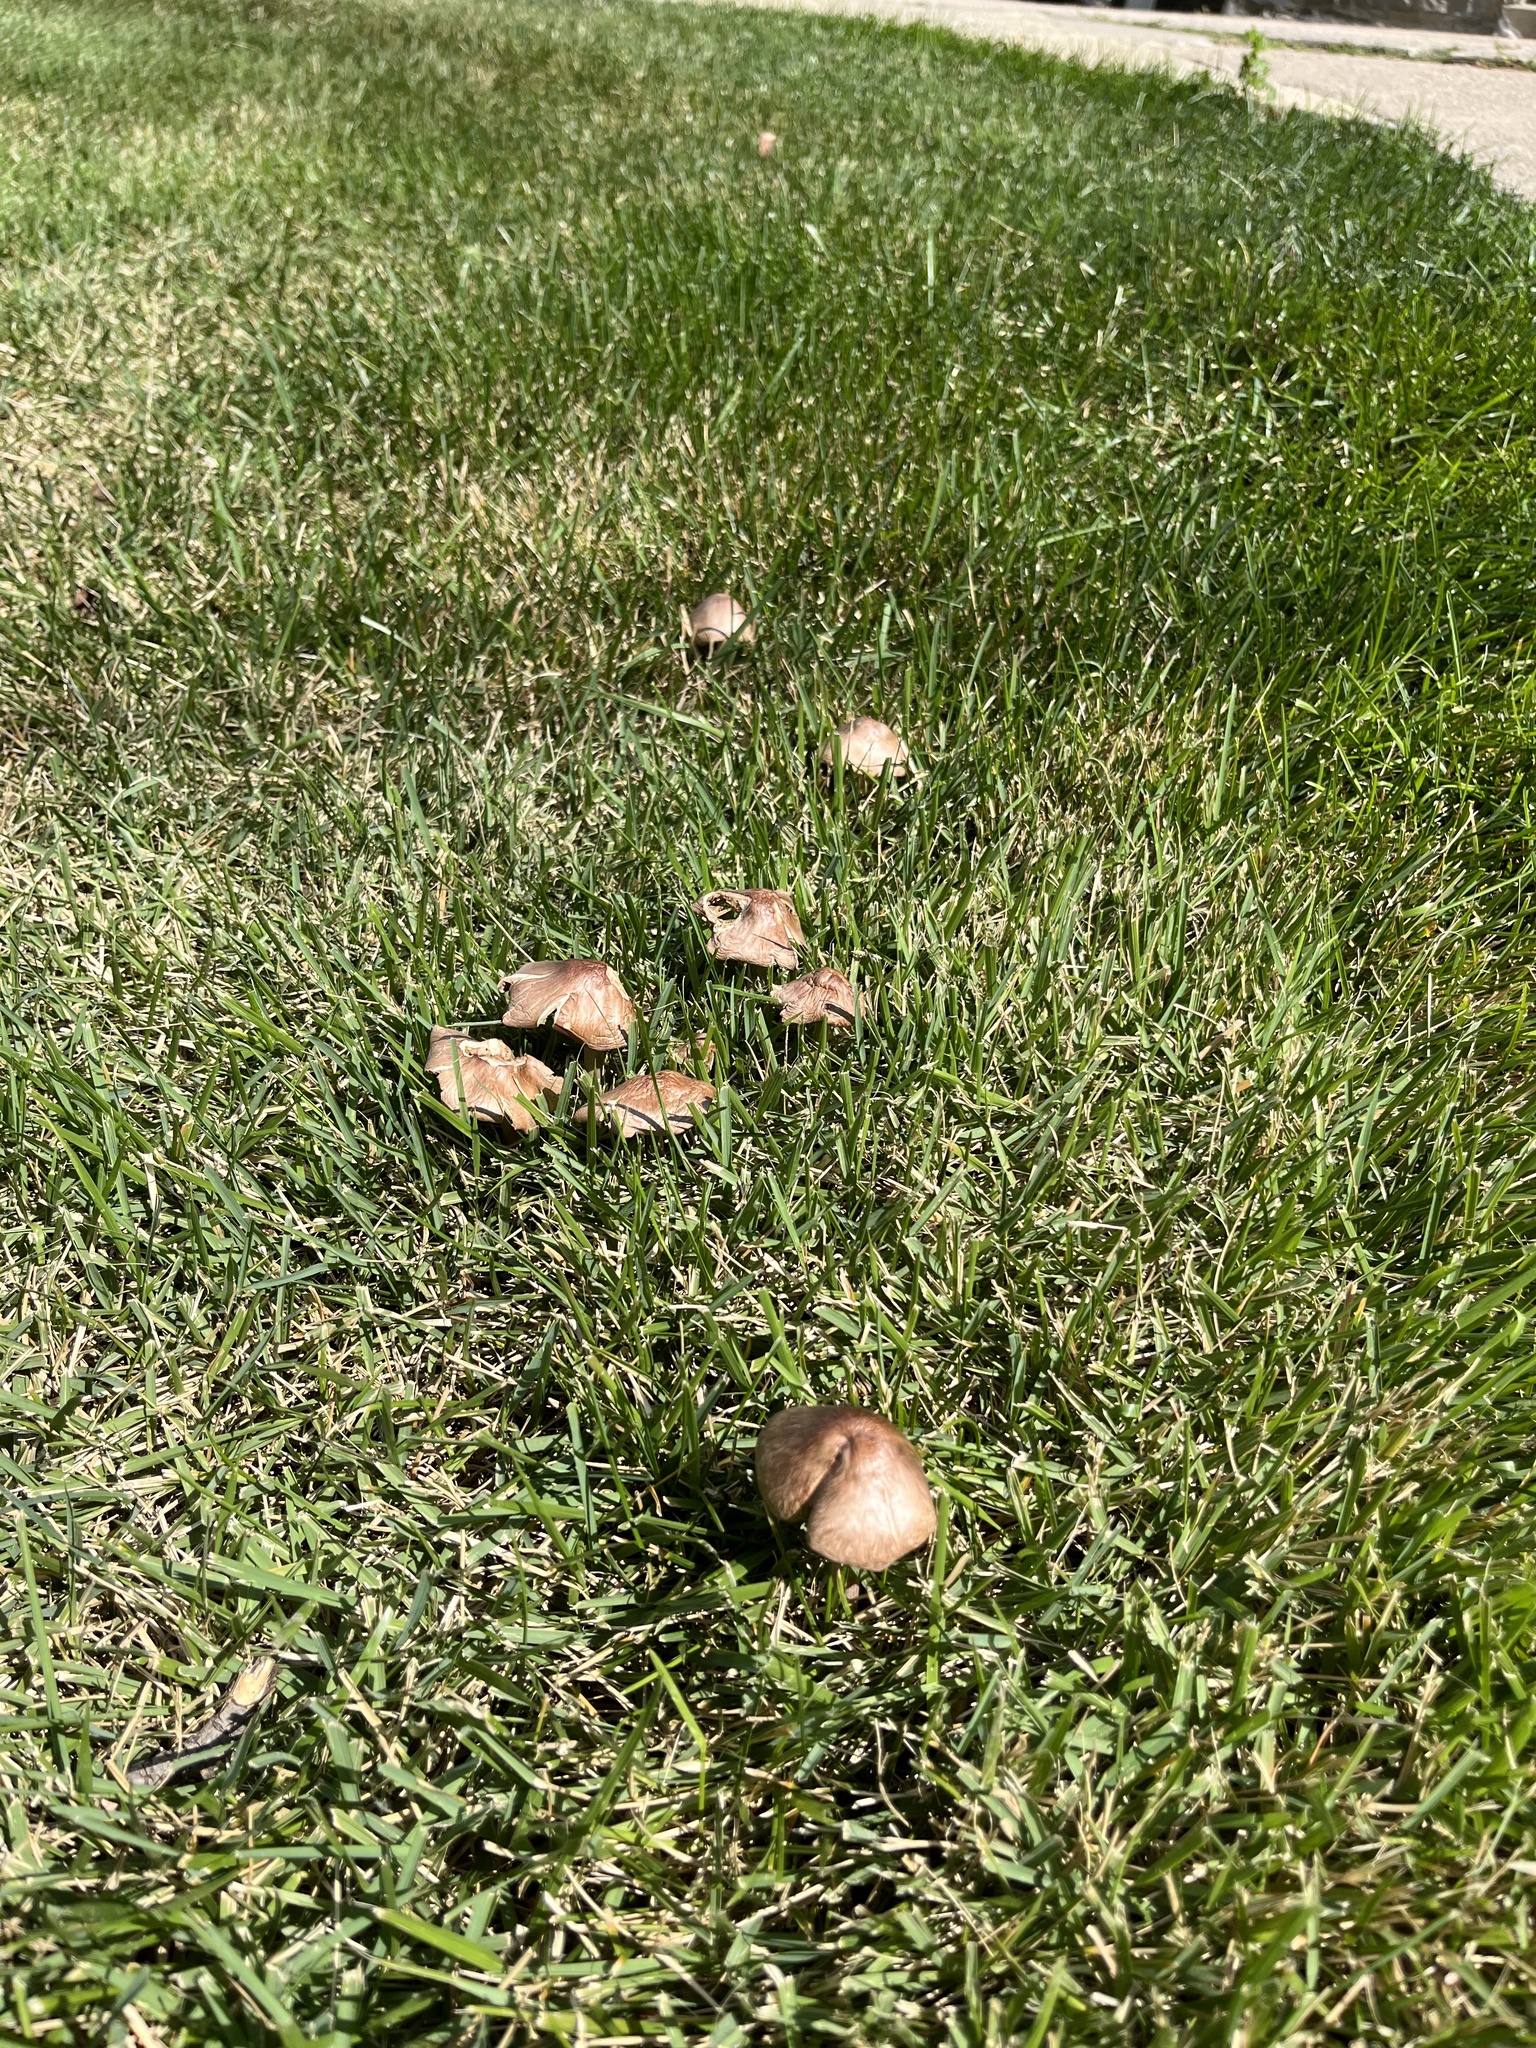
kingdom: Fungi
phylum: Basidiomycota
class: Agaricomycetes
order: Agaricales
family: Omphalotaceae
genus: Collybiopsis
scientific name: Collybiopsis luxurians
